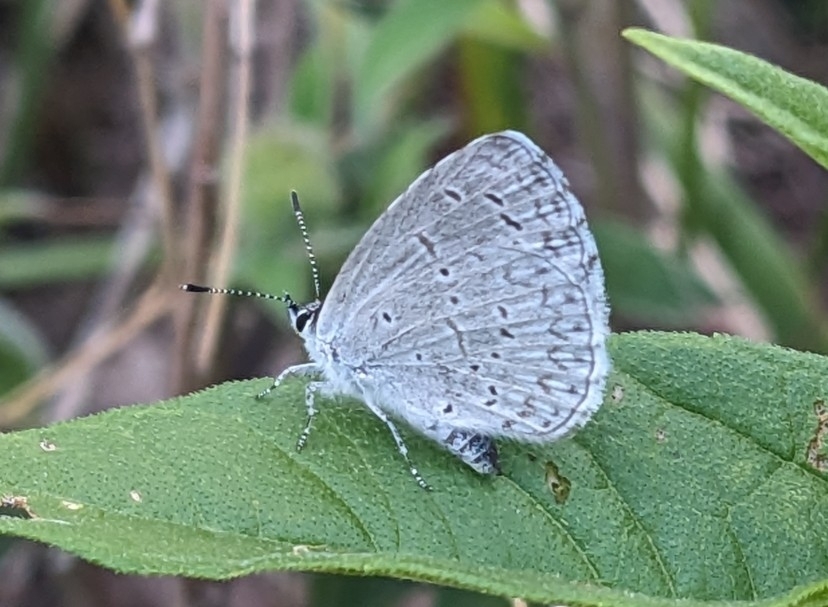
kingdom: Animalia
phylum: Arthropoda
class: Insecta
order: Lepidoptera
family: Lycaenidae
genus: Celastrina
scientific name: Celastrina ladon
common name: Spring azure
